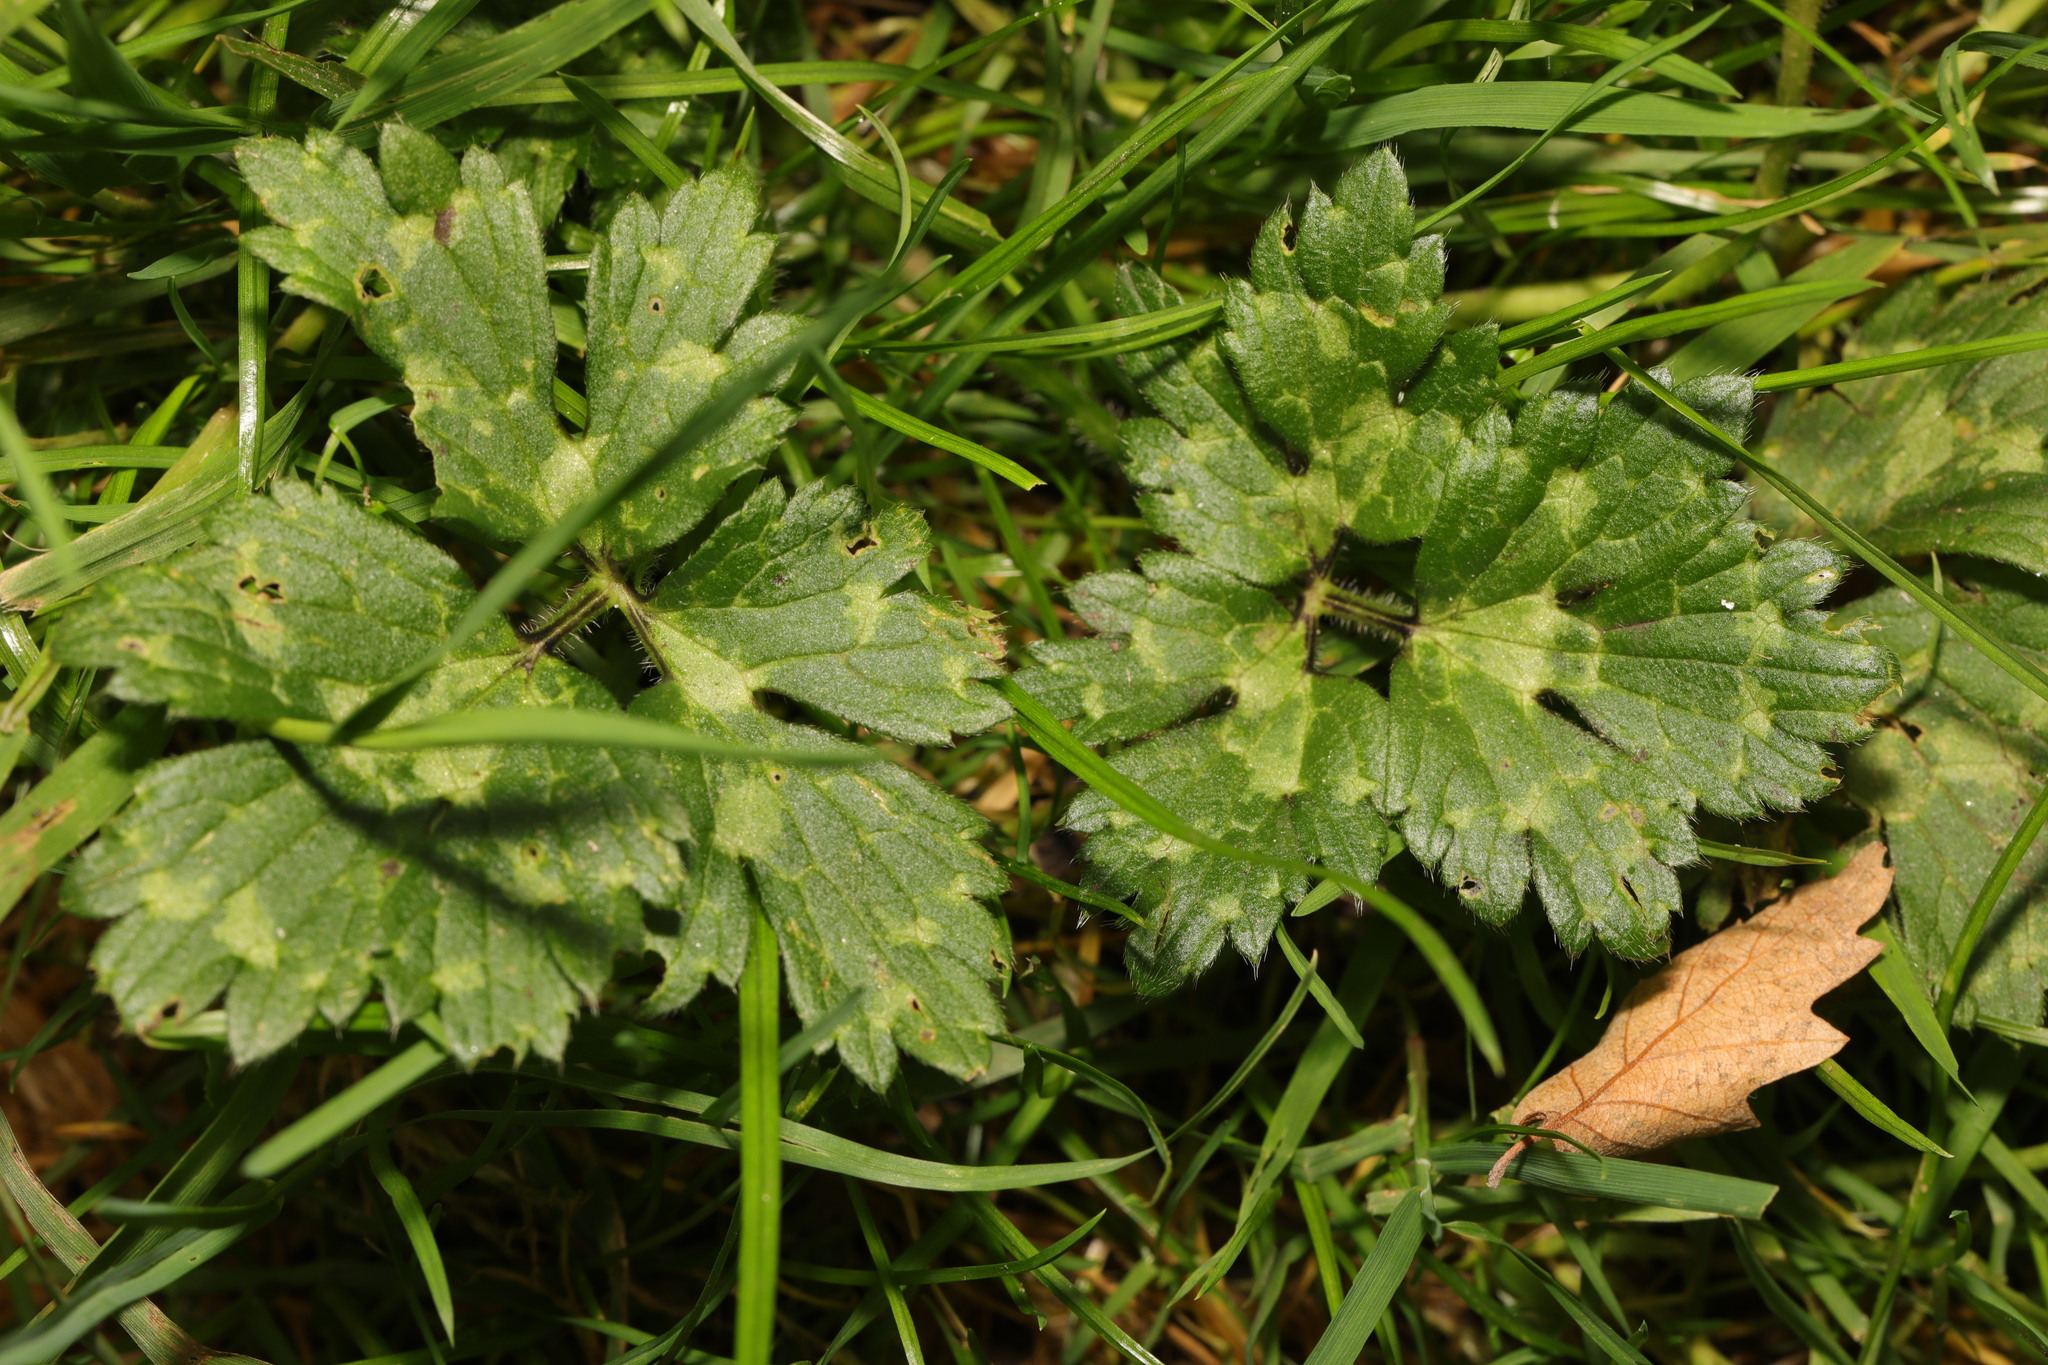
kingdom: Plantae
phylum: Tracheophyta
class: Magnoliopsida
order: Ranunculales
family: Ranunculaceae
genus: Ranunculus
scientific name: Ranunculus repens
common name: Creeping buttercup
